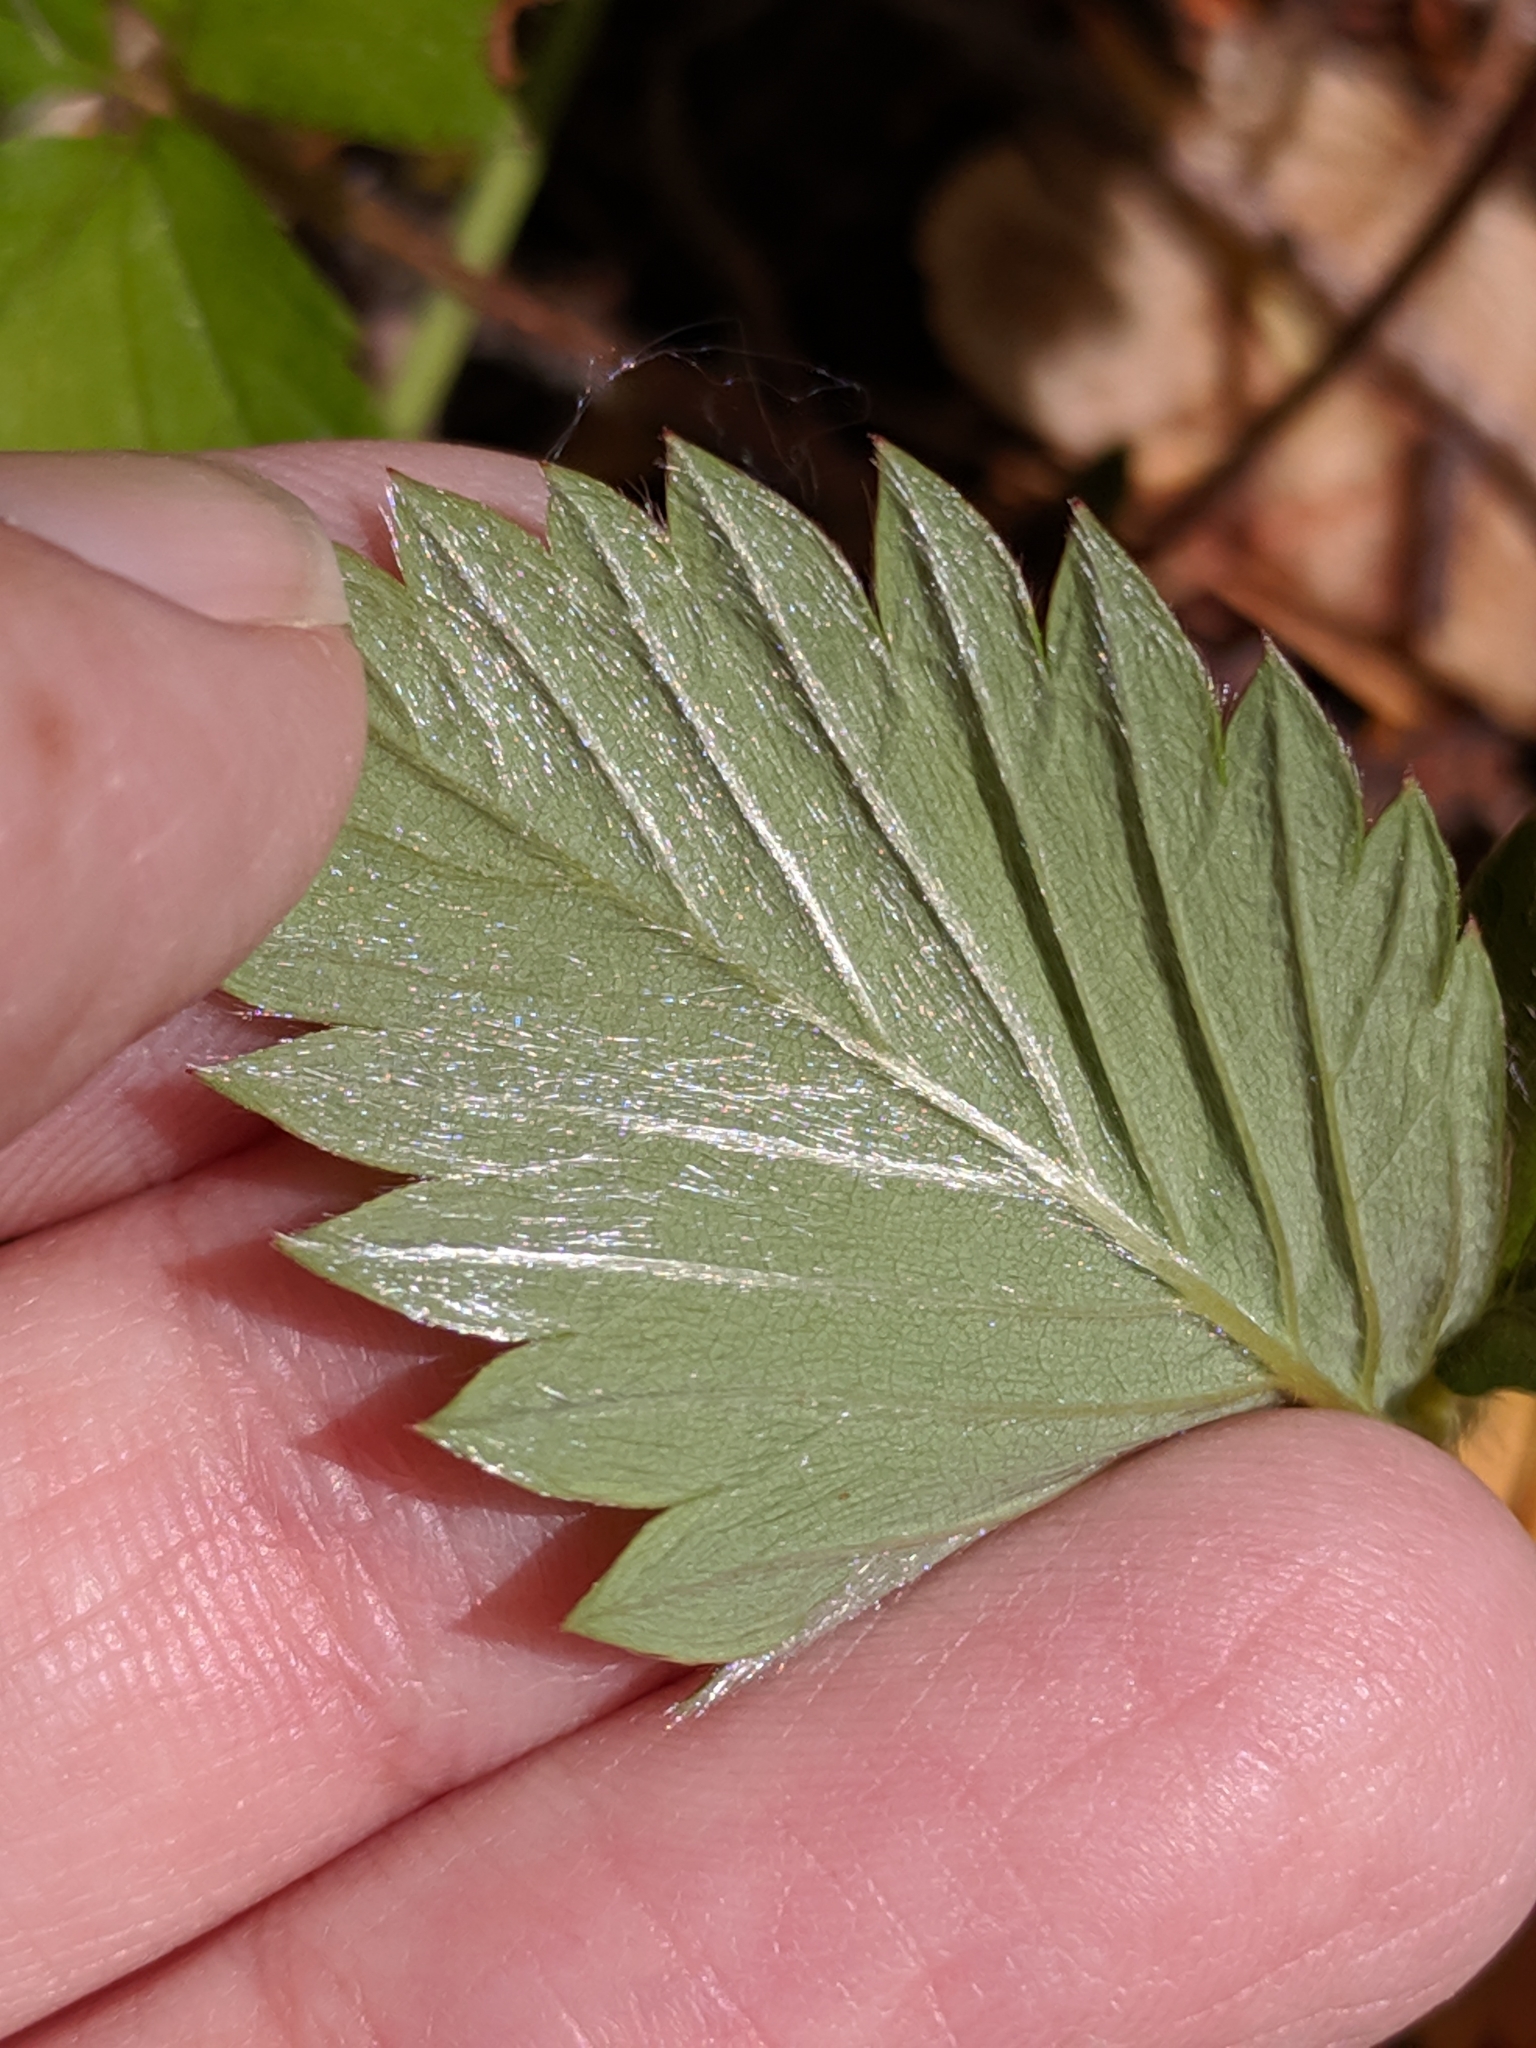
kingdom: Plantae
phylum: Tracheophyta
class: Magnoliopsida
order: Rosales
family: Rosaceae
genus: Fragaria
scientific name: Fragaria vesca
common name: Wild strawberry
